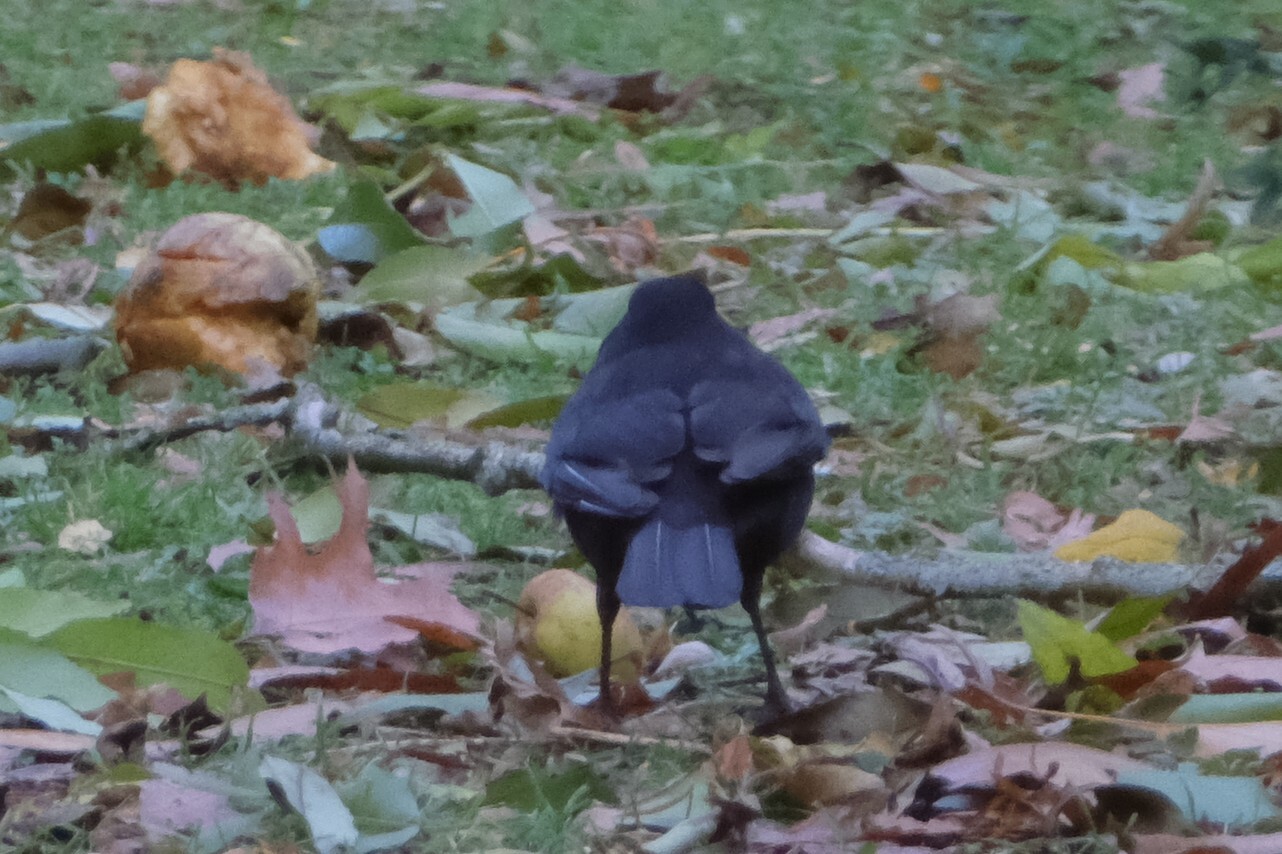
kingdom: Animalia
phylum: Chordata
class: Aves
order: Passeriformes
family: Turdidae
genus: Turdus
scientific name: Turdus merula
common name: Common blackbird
